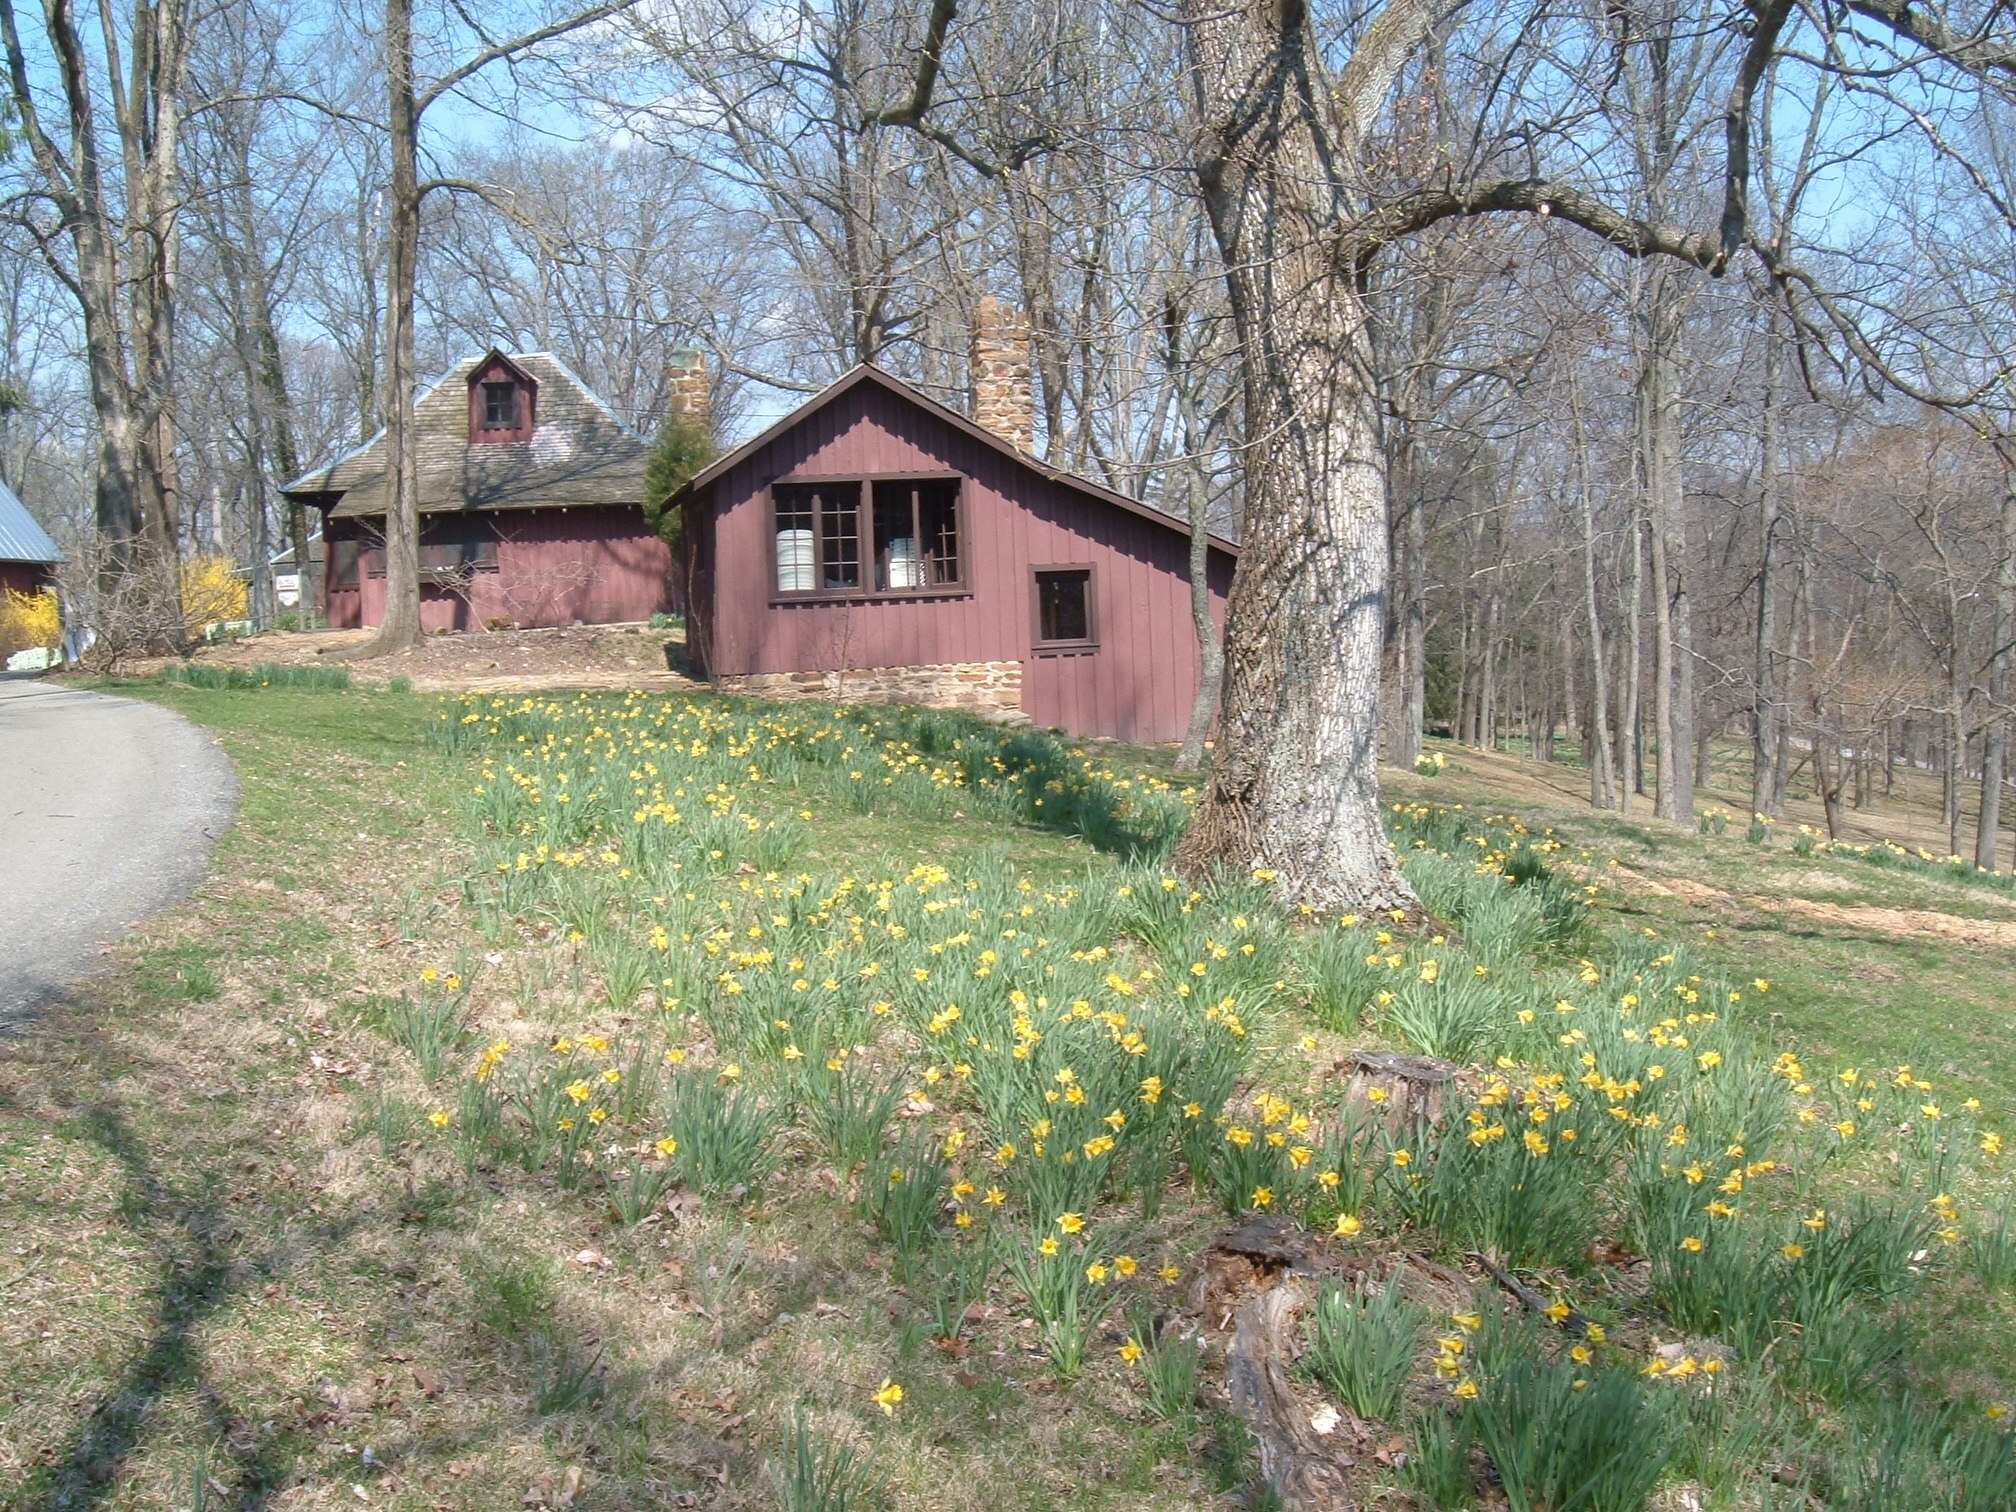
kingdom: Plantae
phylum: Tracheophyta
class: Liliopsida
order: Asparagales
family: Amaryllidaceae
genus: Narcissus
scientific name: Narcissus pseudonarcissus
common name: Daffodil
